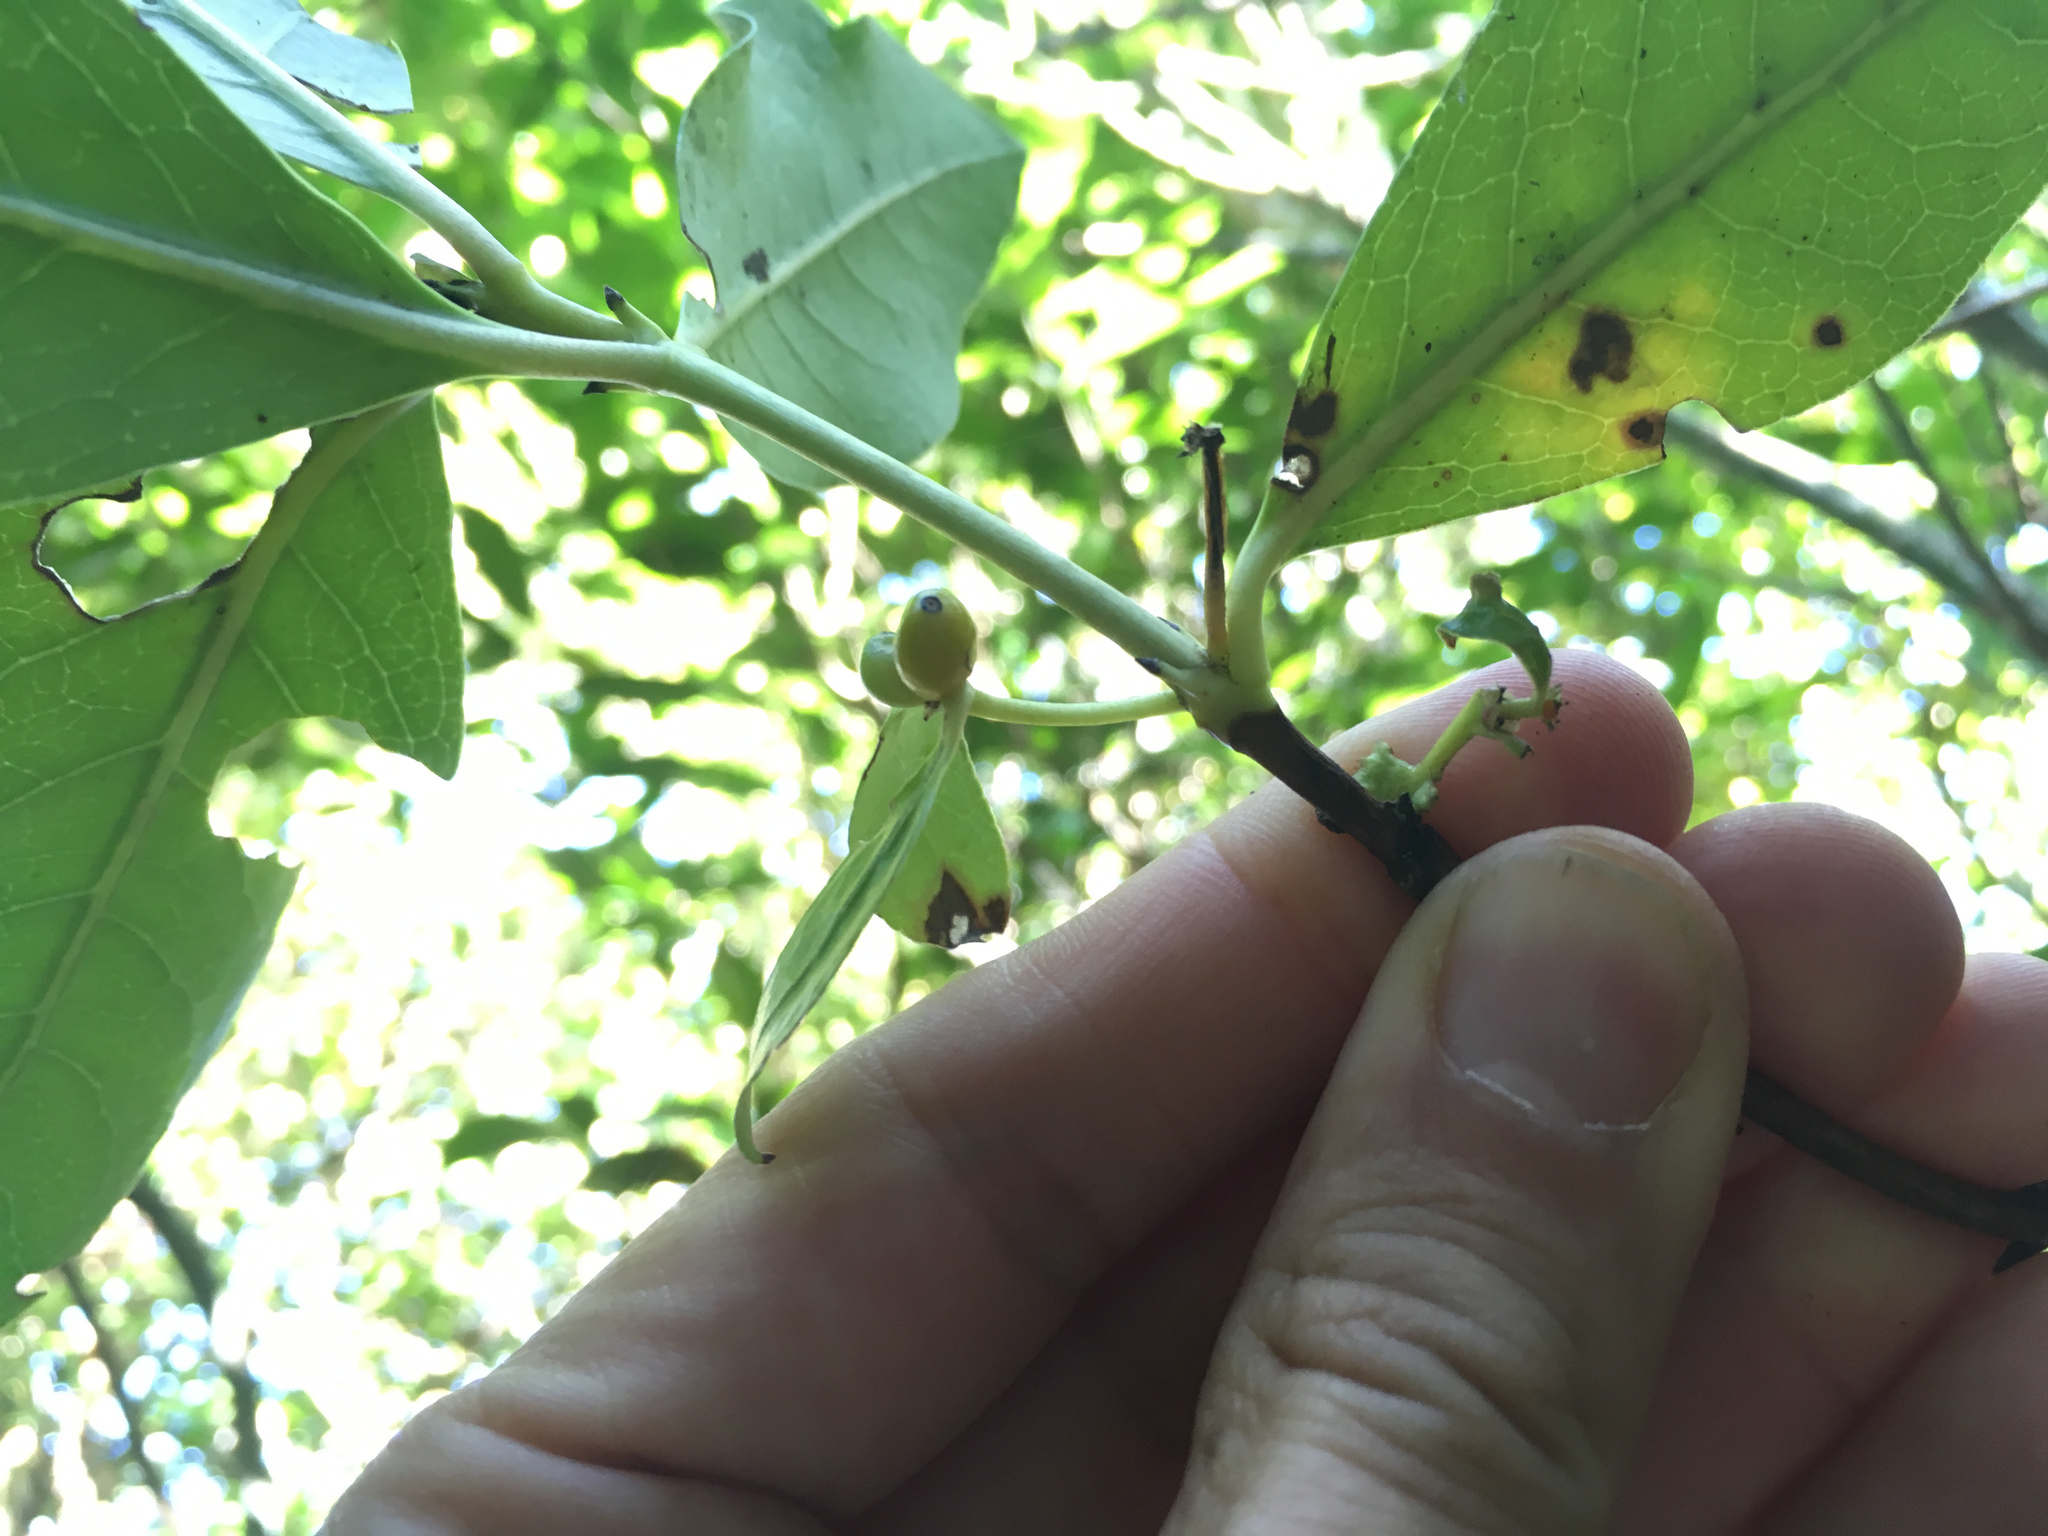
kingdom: Plantae
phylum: Tracheophyta
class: Magnoliopsida
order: Gentianales
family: Rubiaceae
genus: Coprosma
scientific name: Coprosma robusta
